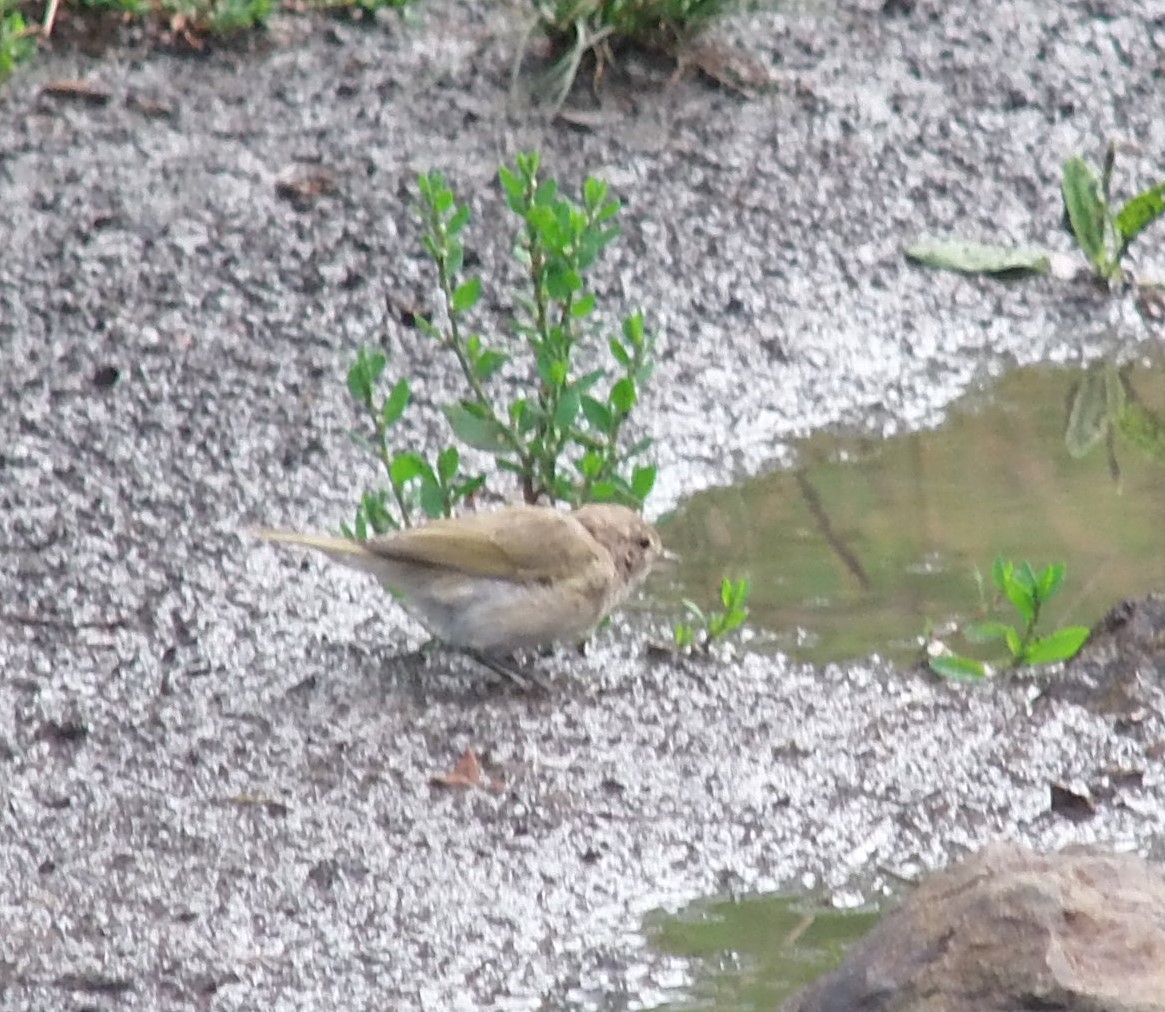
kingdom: Animalia
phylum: Chordata
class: Aves
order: Passeriformes
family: Phylloscopidae
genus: Phylloscopus
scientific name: Phylloscopus collybita
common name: Common chiffchaff
